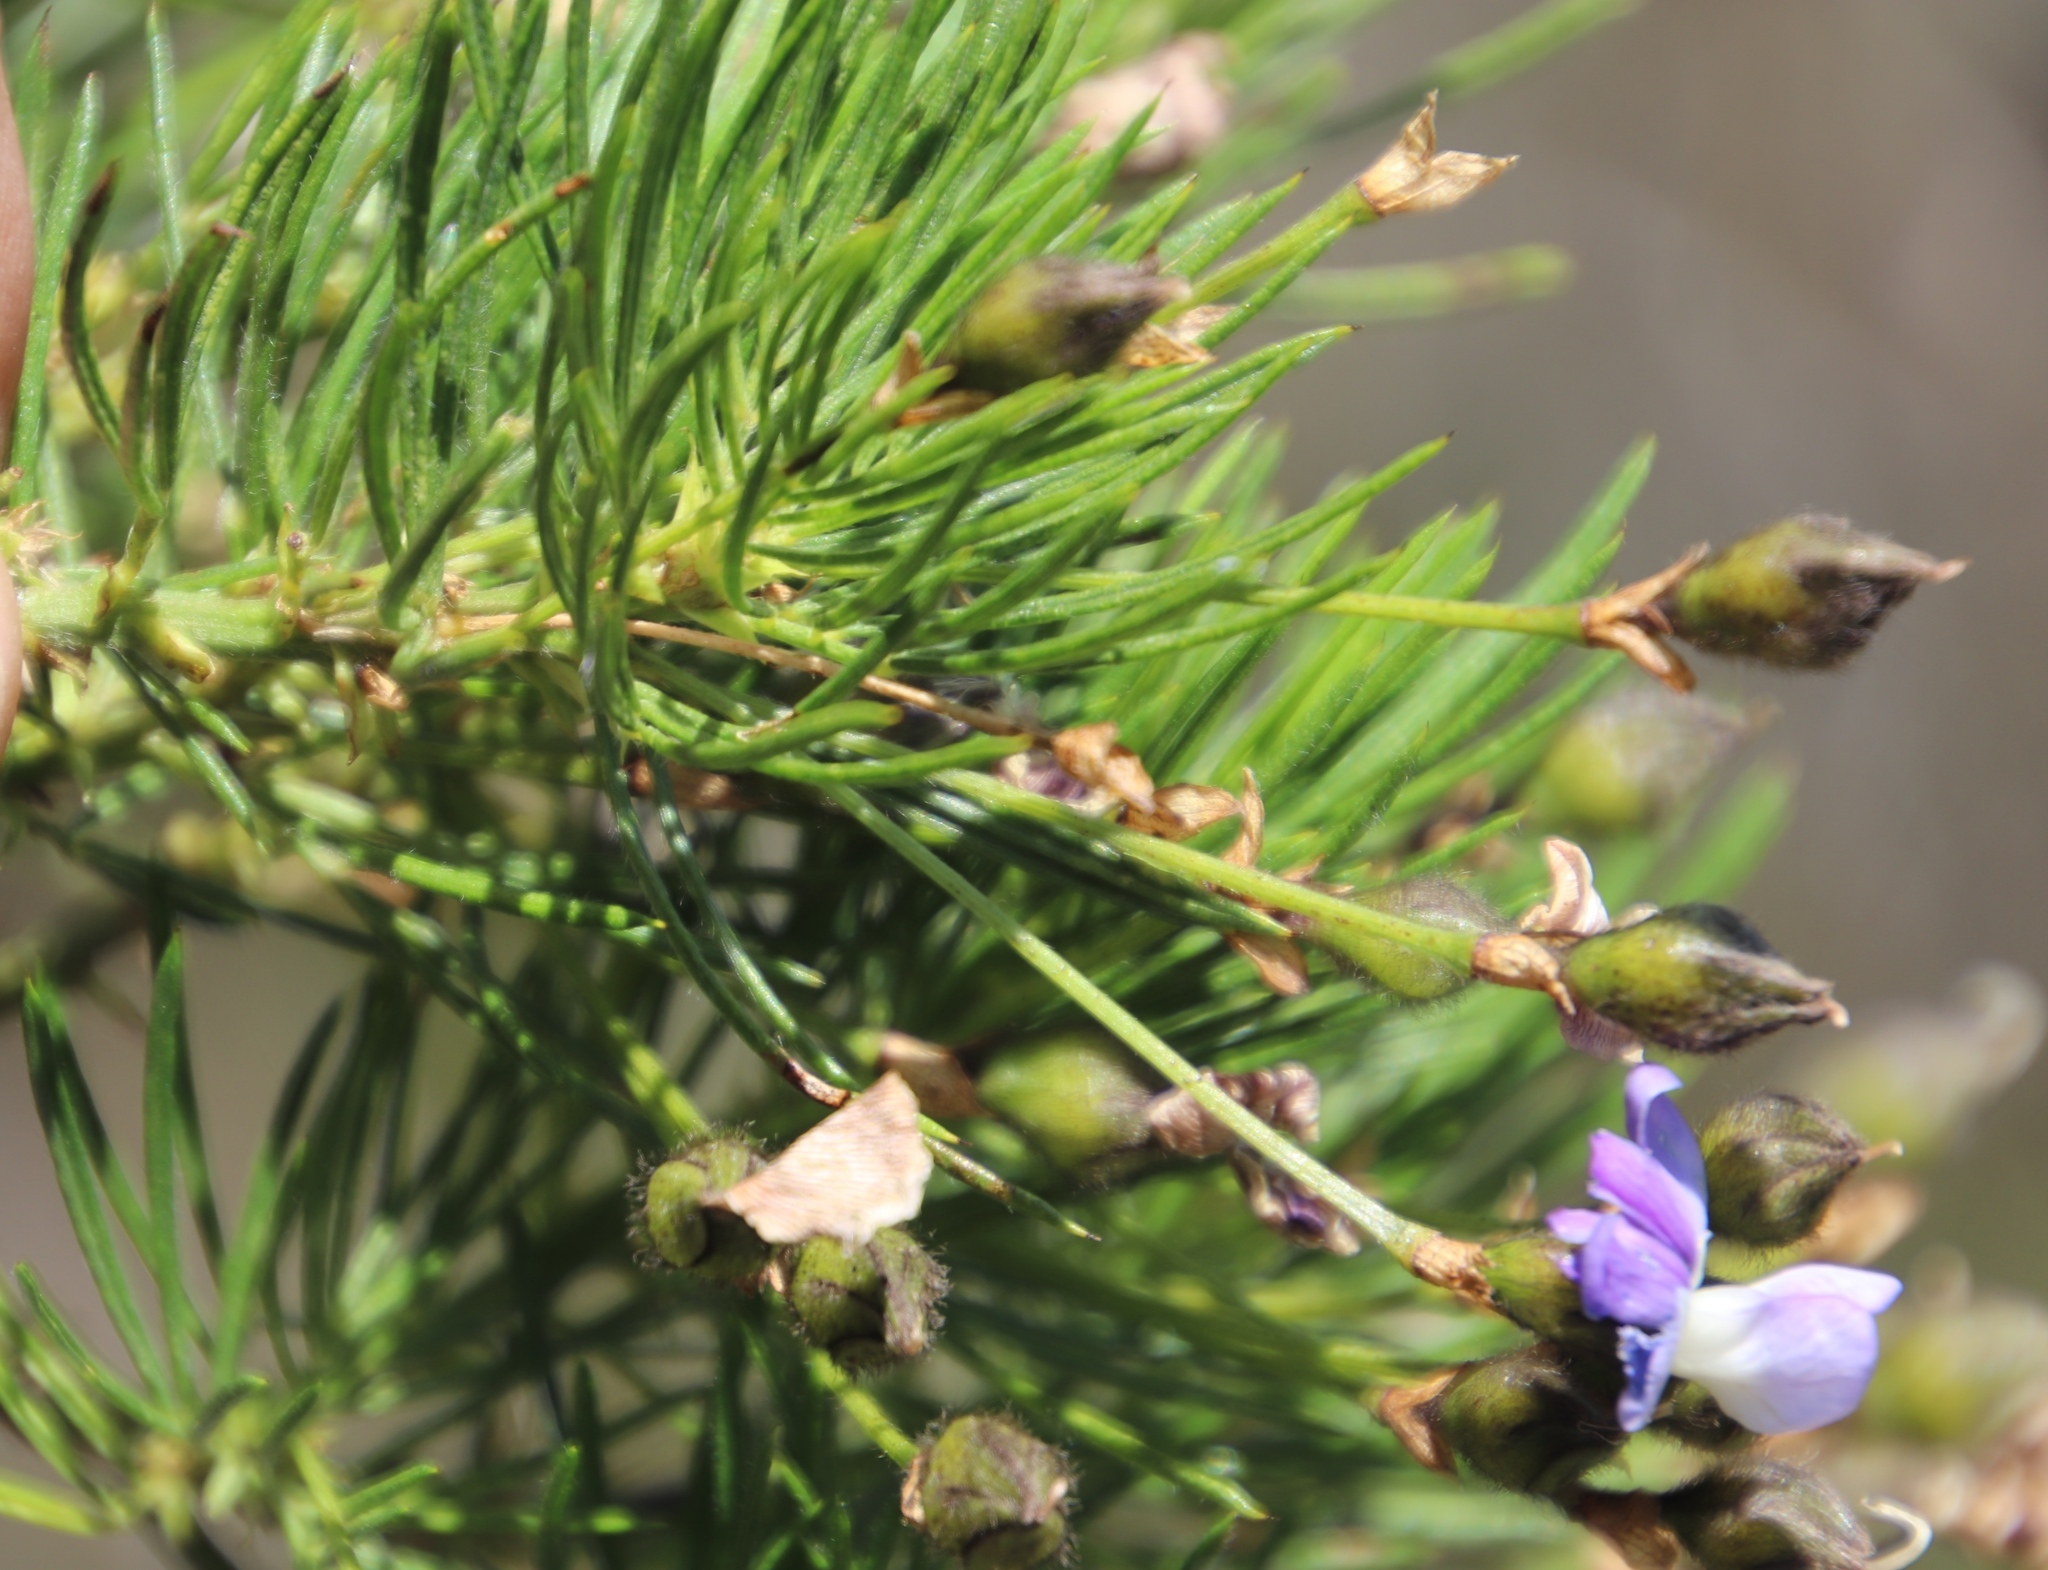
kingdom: Plantae
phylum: Tracheophyta
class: Magnoliopsida
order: Fabales
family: Fabaceae
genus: Psoralea
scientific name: Psoralea arborea
